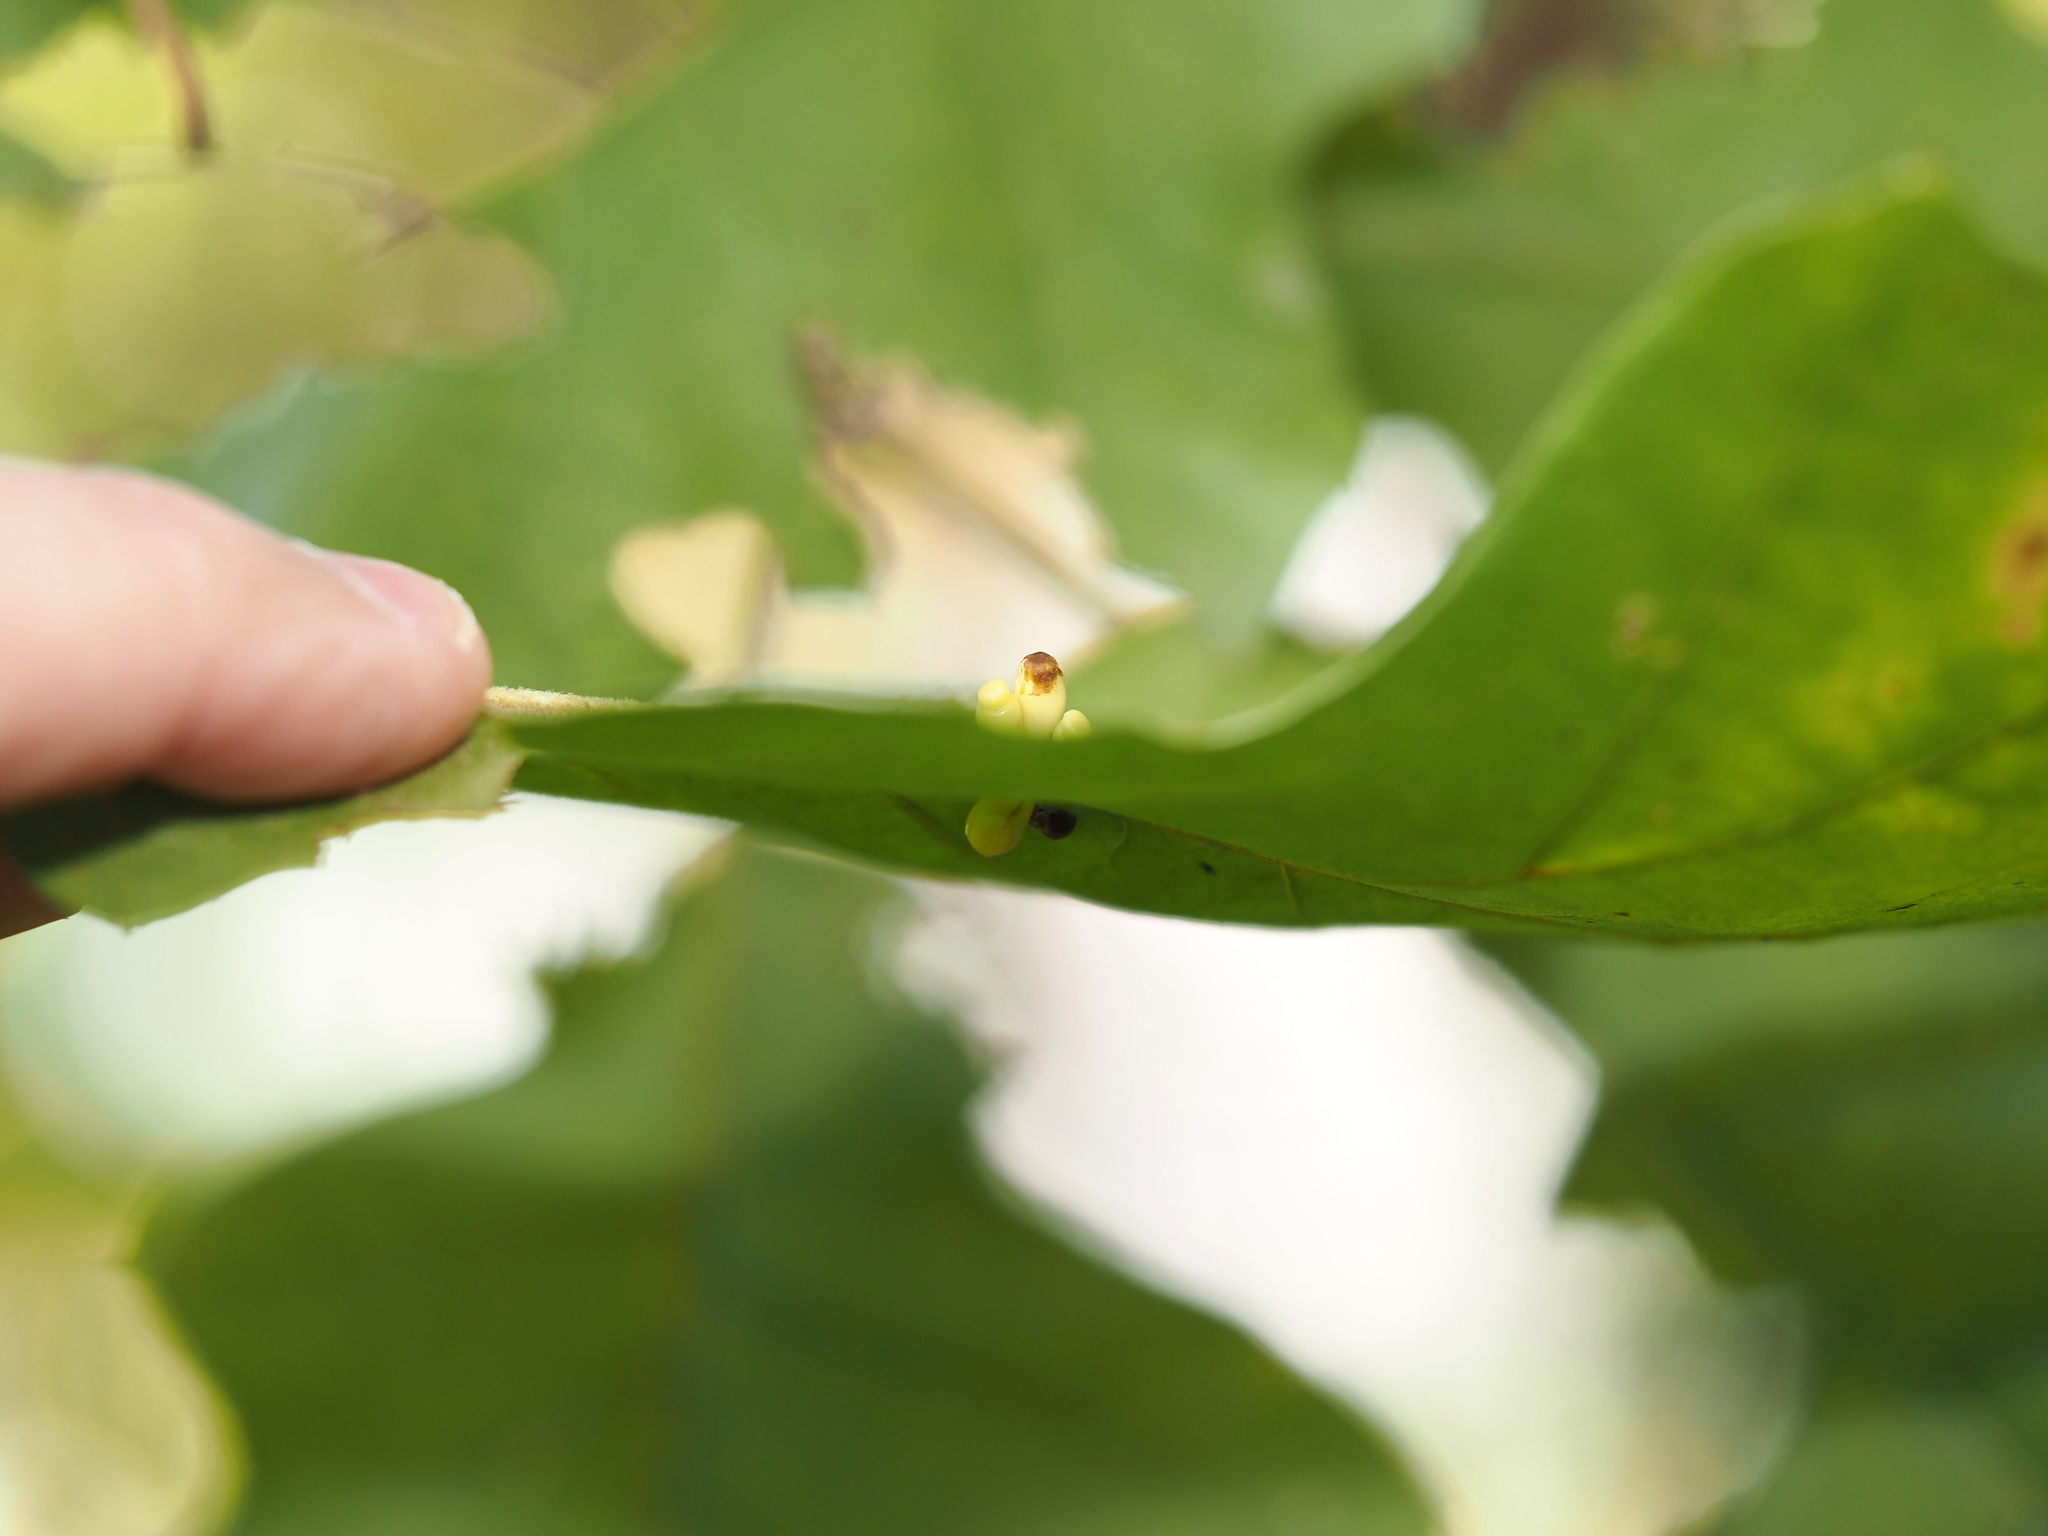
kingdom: Animalia
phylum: Arthropoda
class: Insecta
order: Hymenoptera
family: Cynipidae
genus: Kokkocynips
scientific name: Kokkocynips decidua
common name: Oak wheat gall
